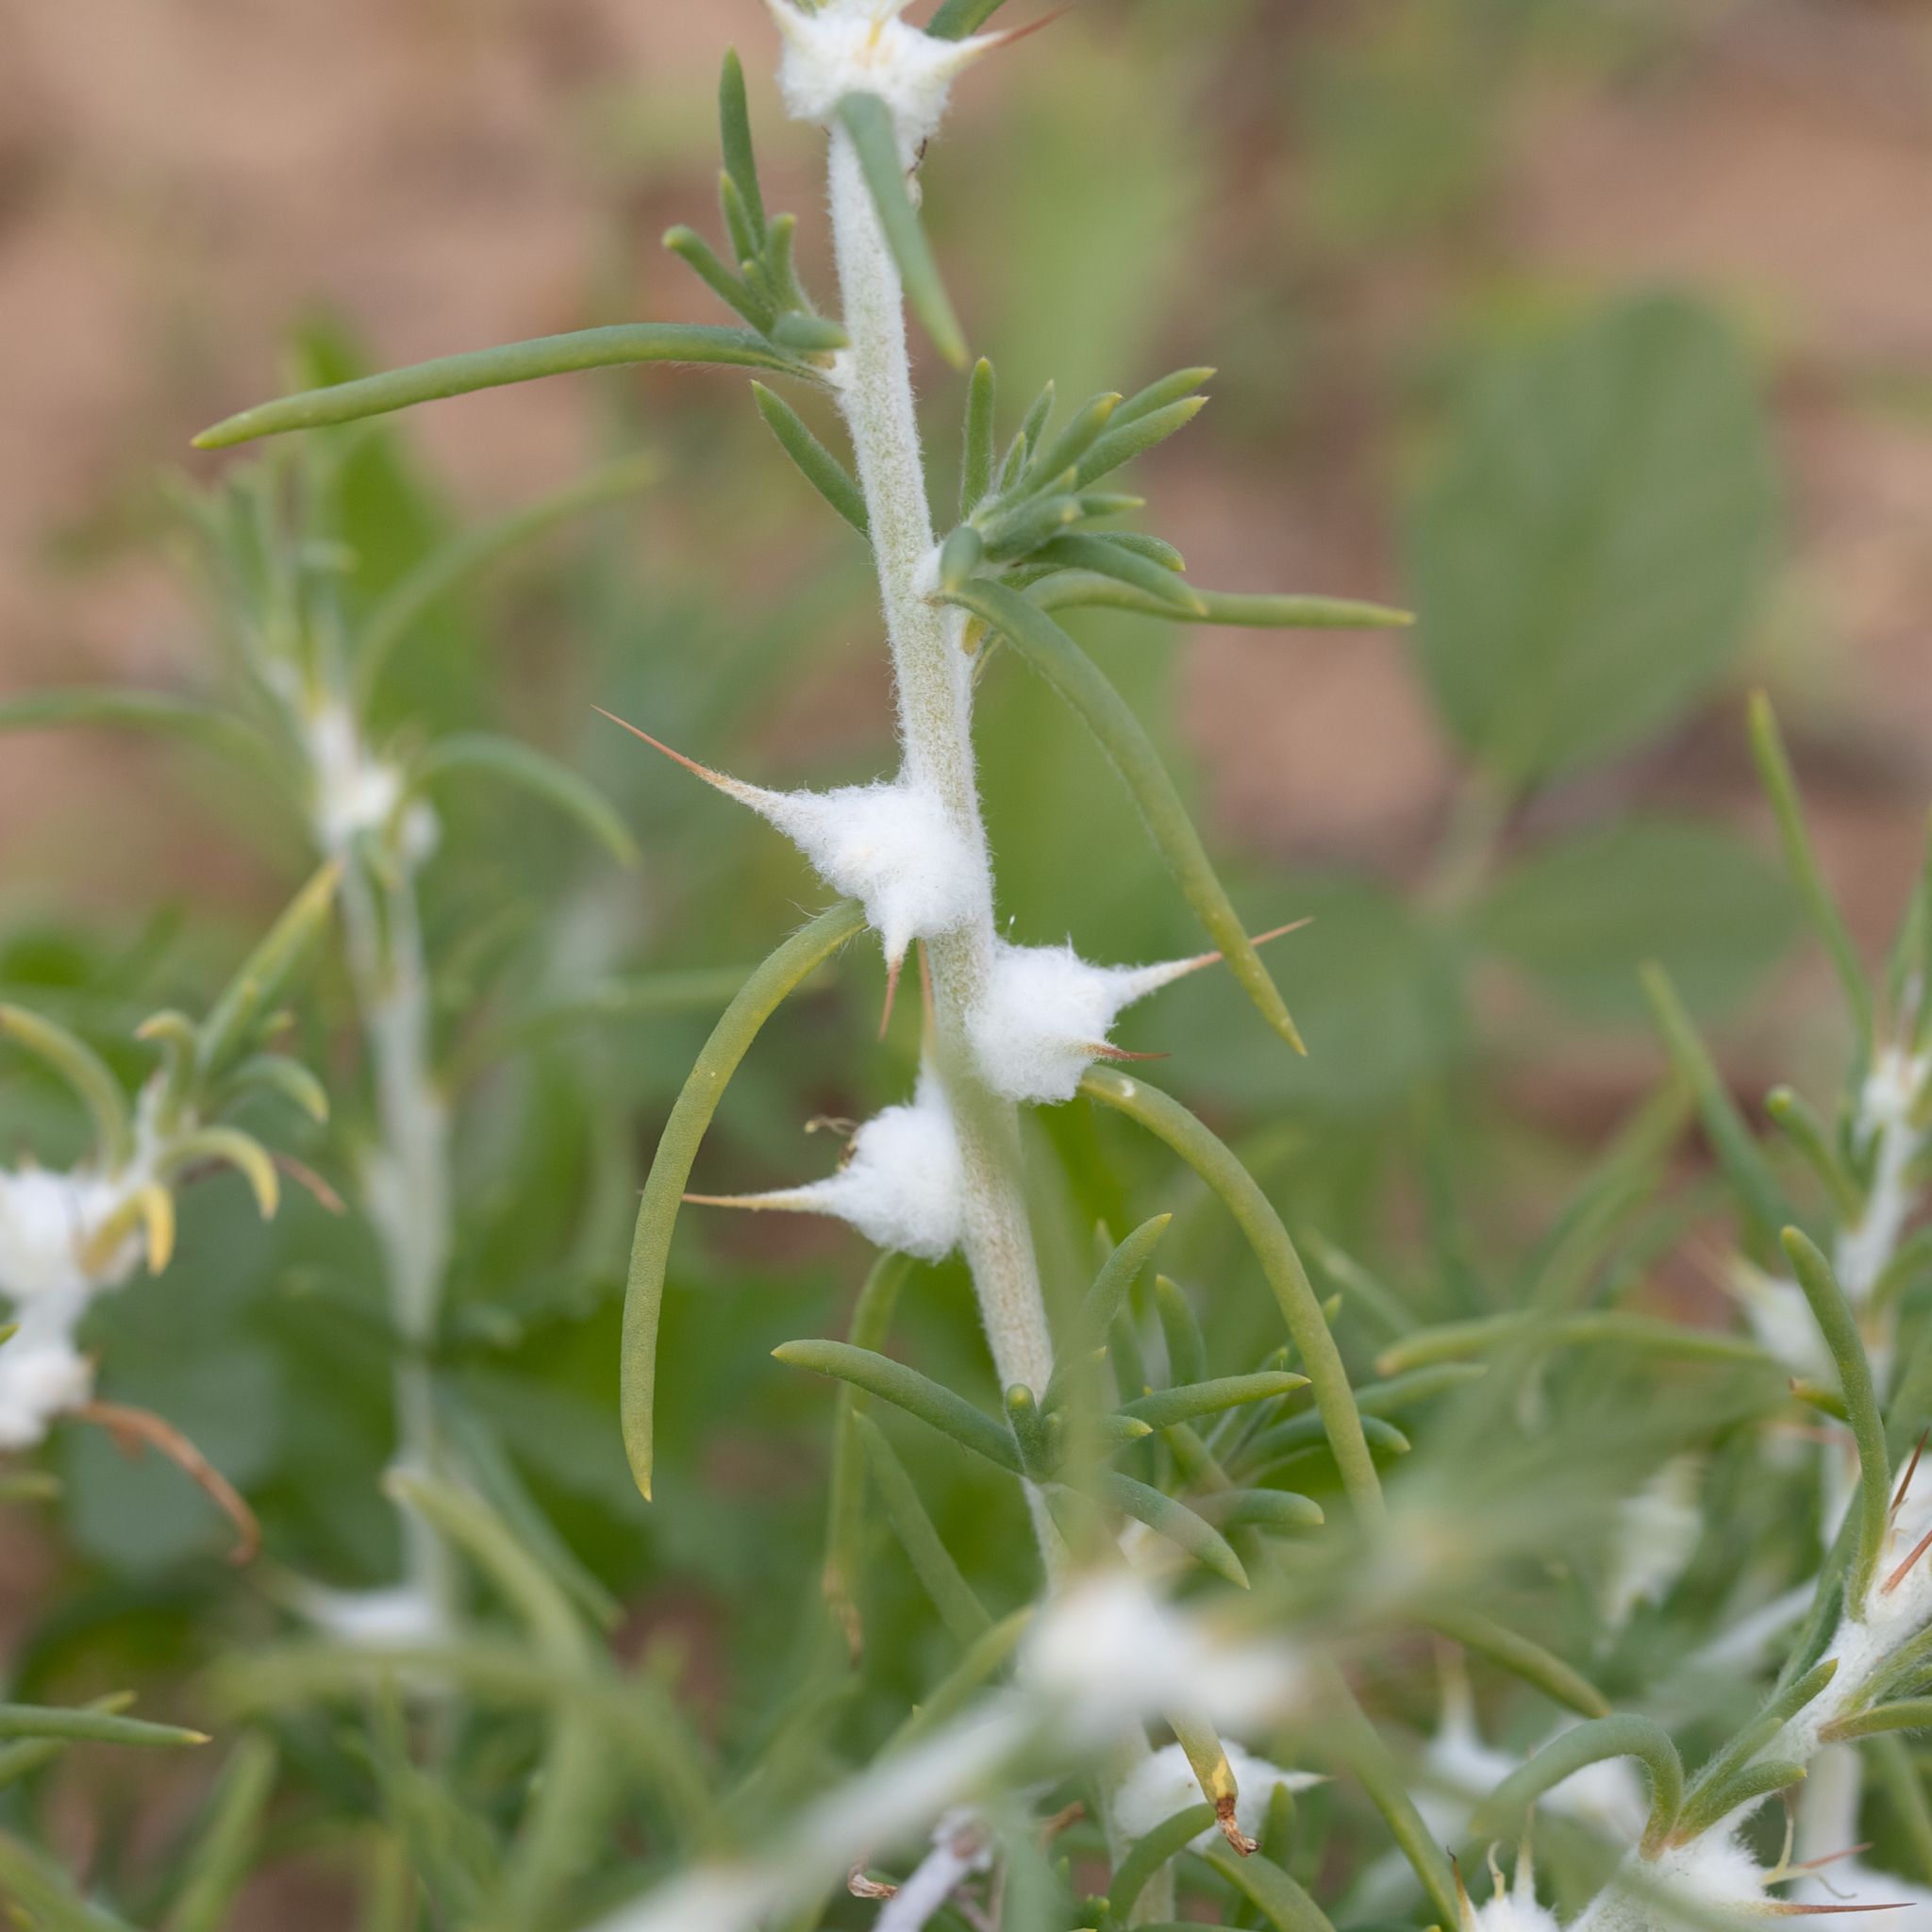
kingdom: Plantae
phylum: Tracheophyta
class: Magnoliopsida
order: Caryophyllales
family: Amaranthaceae
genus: Sclerolaena
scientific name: Sclerolaena bicornis
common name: Goatheadbur
